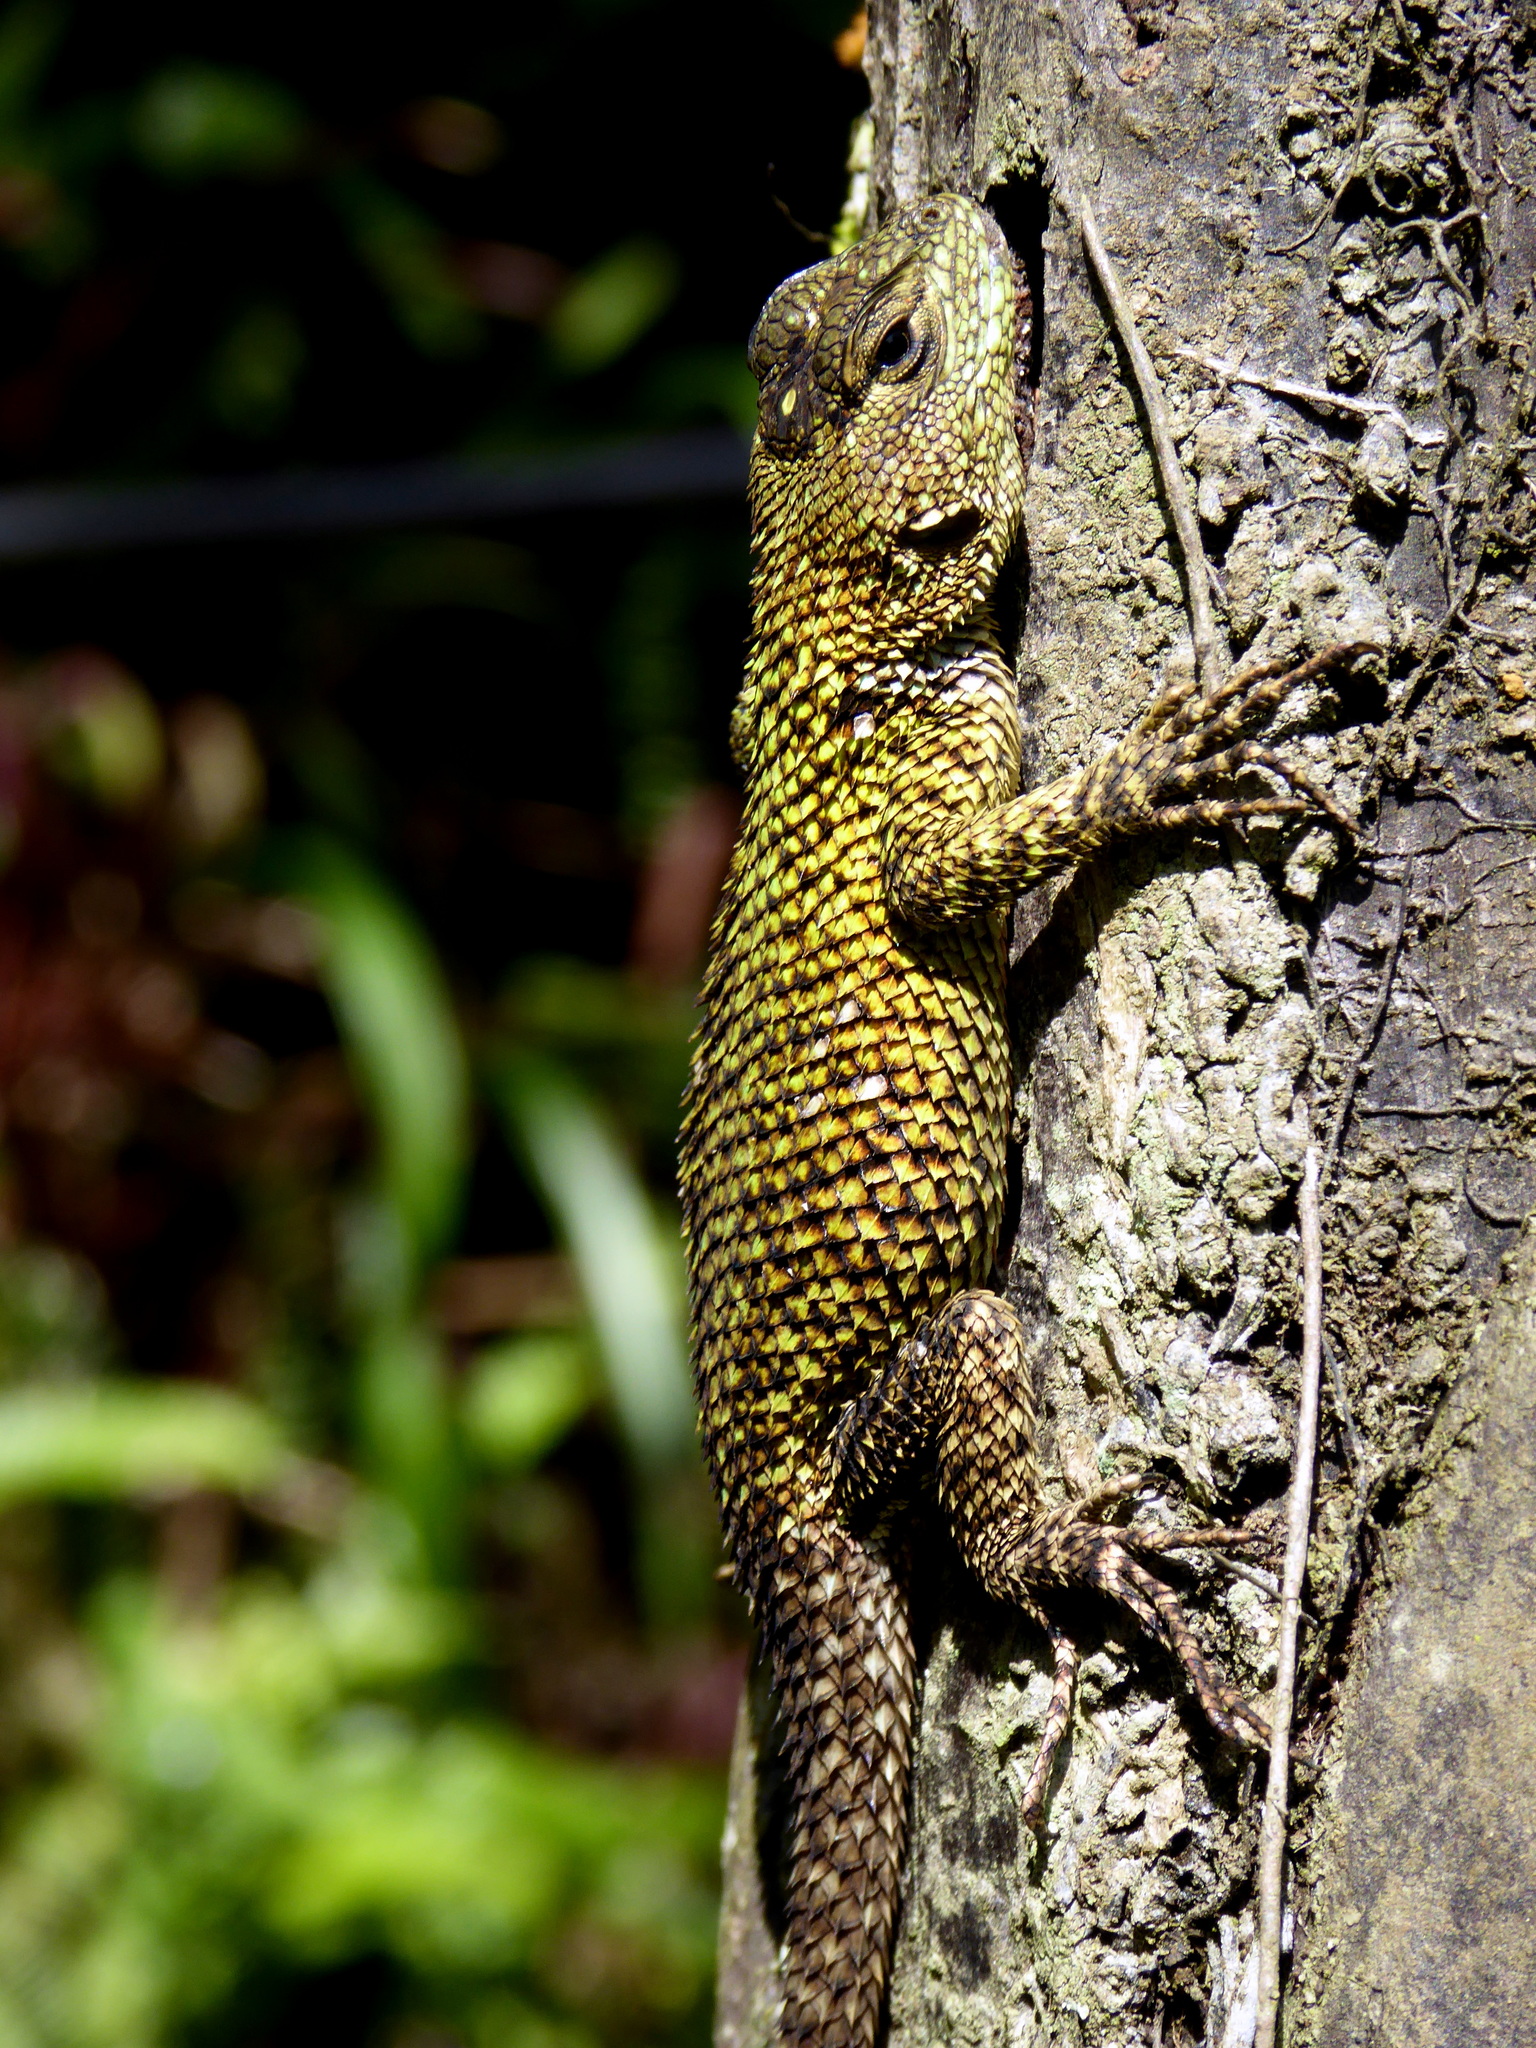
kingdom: Animalia
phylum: Chordata
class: Squamata
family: Phrynosomatidae
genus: Sceloporus
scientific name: Sceloporus taeniocnemis
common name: Guatemalan emerald spiny lizard
